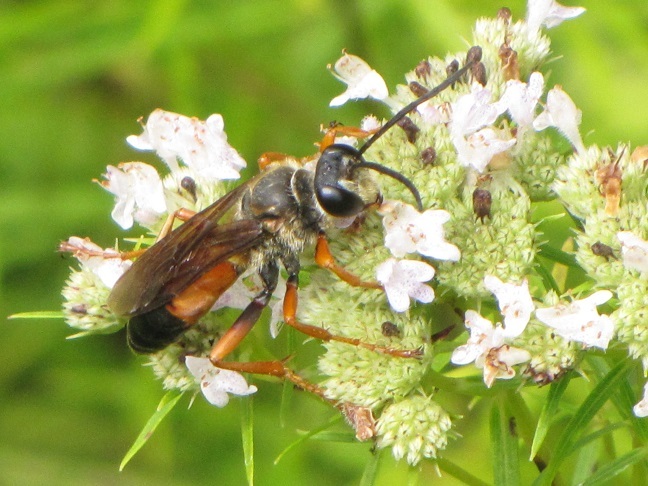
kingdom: Animalia
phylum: Arthropoda
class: Insecta
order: Hymenoptera
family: Sphecidae
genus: Sphex
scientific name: Sphex ichneumoneus
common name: Great golden digger wasp
